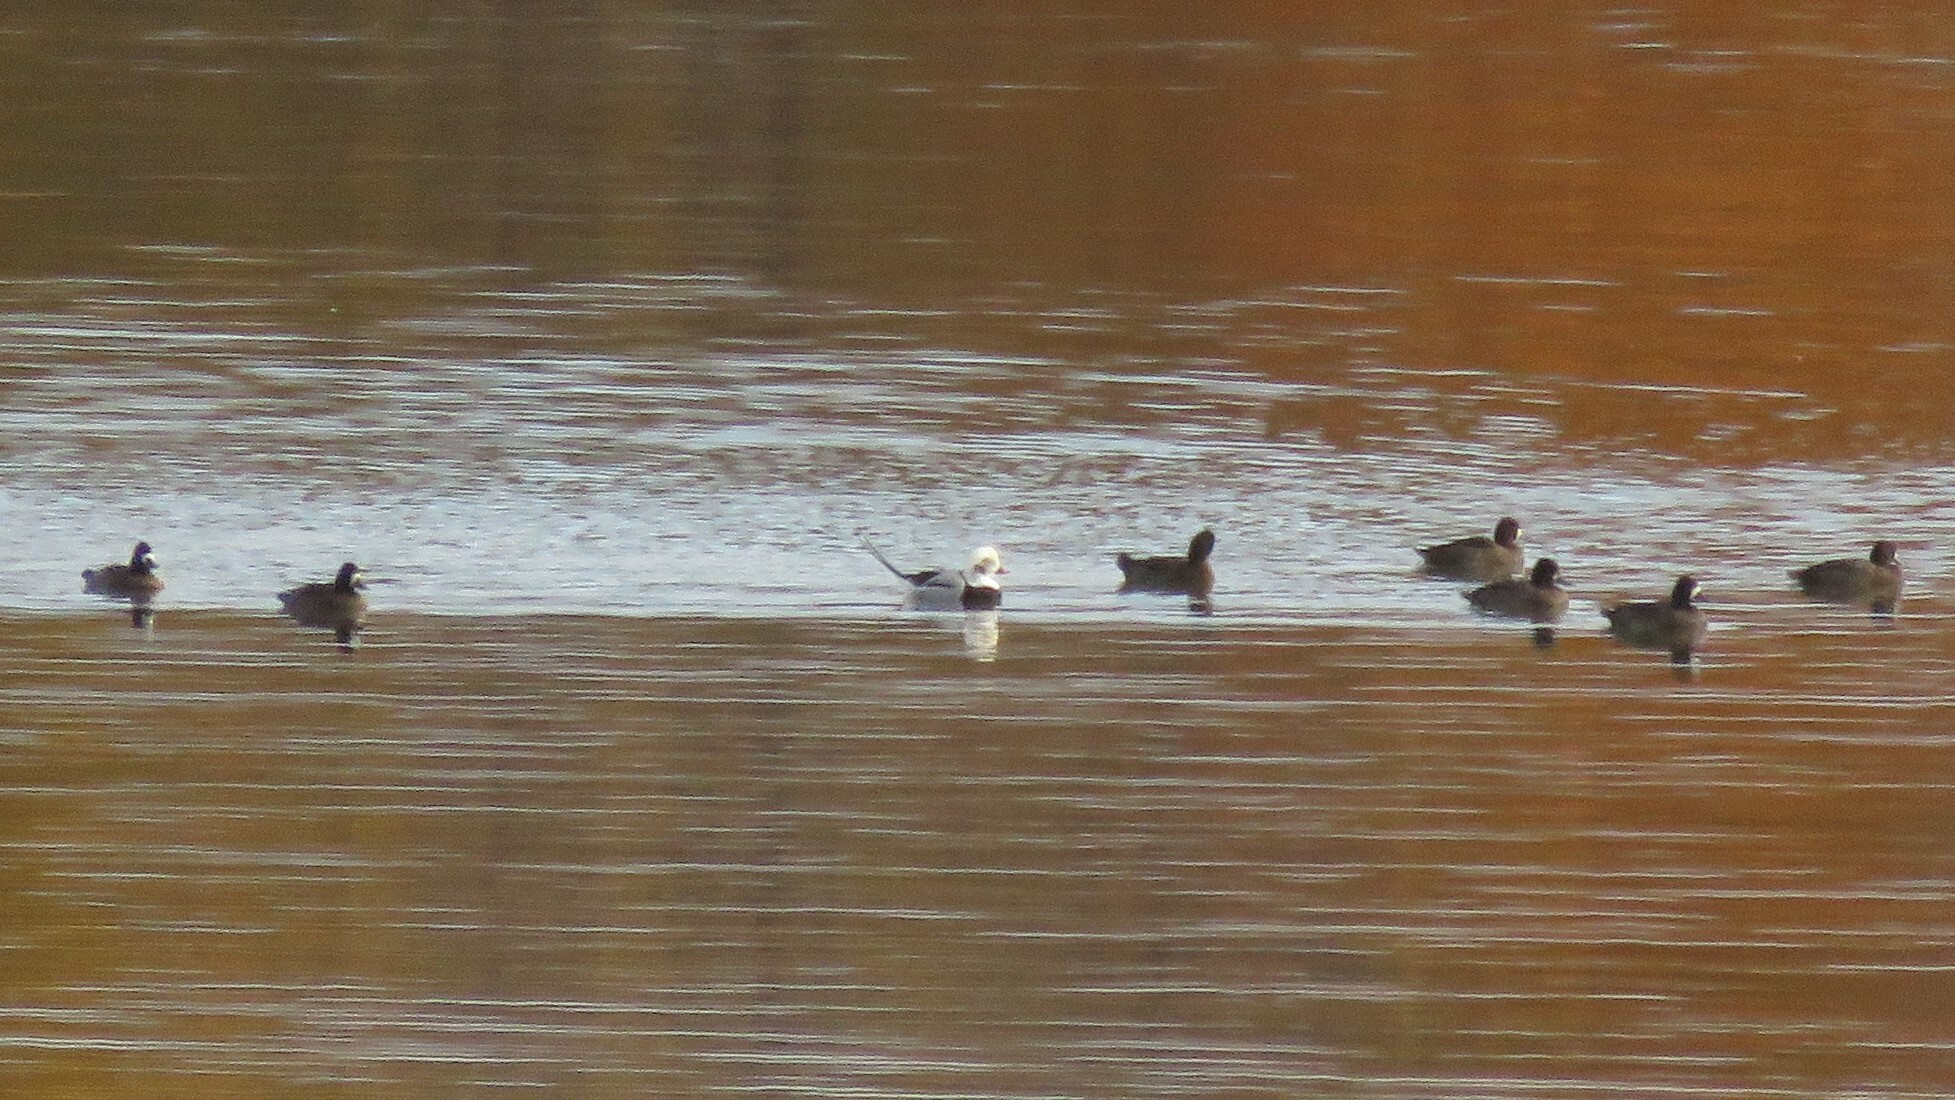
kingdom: Animalia
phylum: Chordata
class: Aves
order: Anseriformes
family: Anatidae
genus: Clangula
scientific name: Clangula hyemalis
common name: Long-tailed duck
